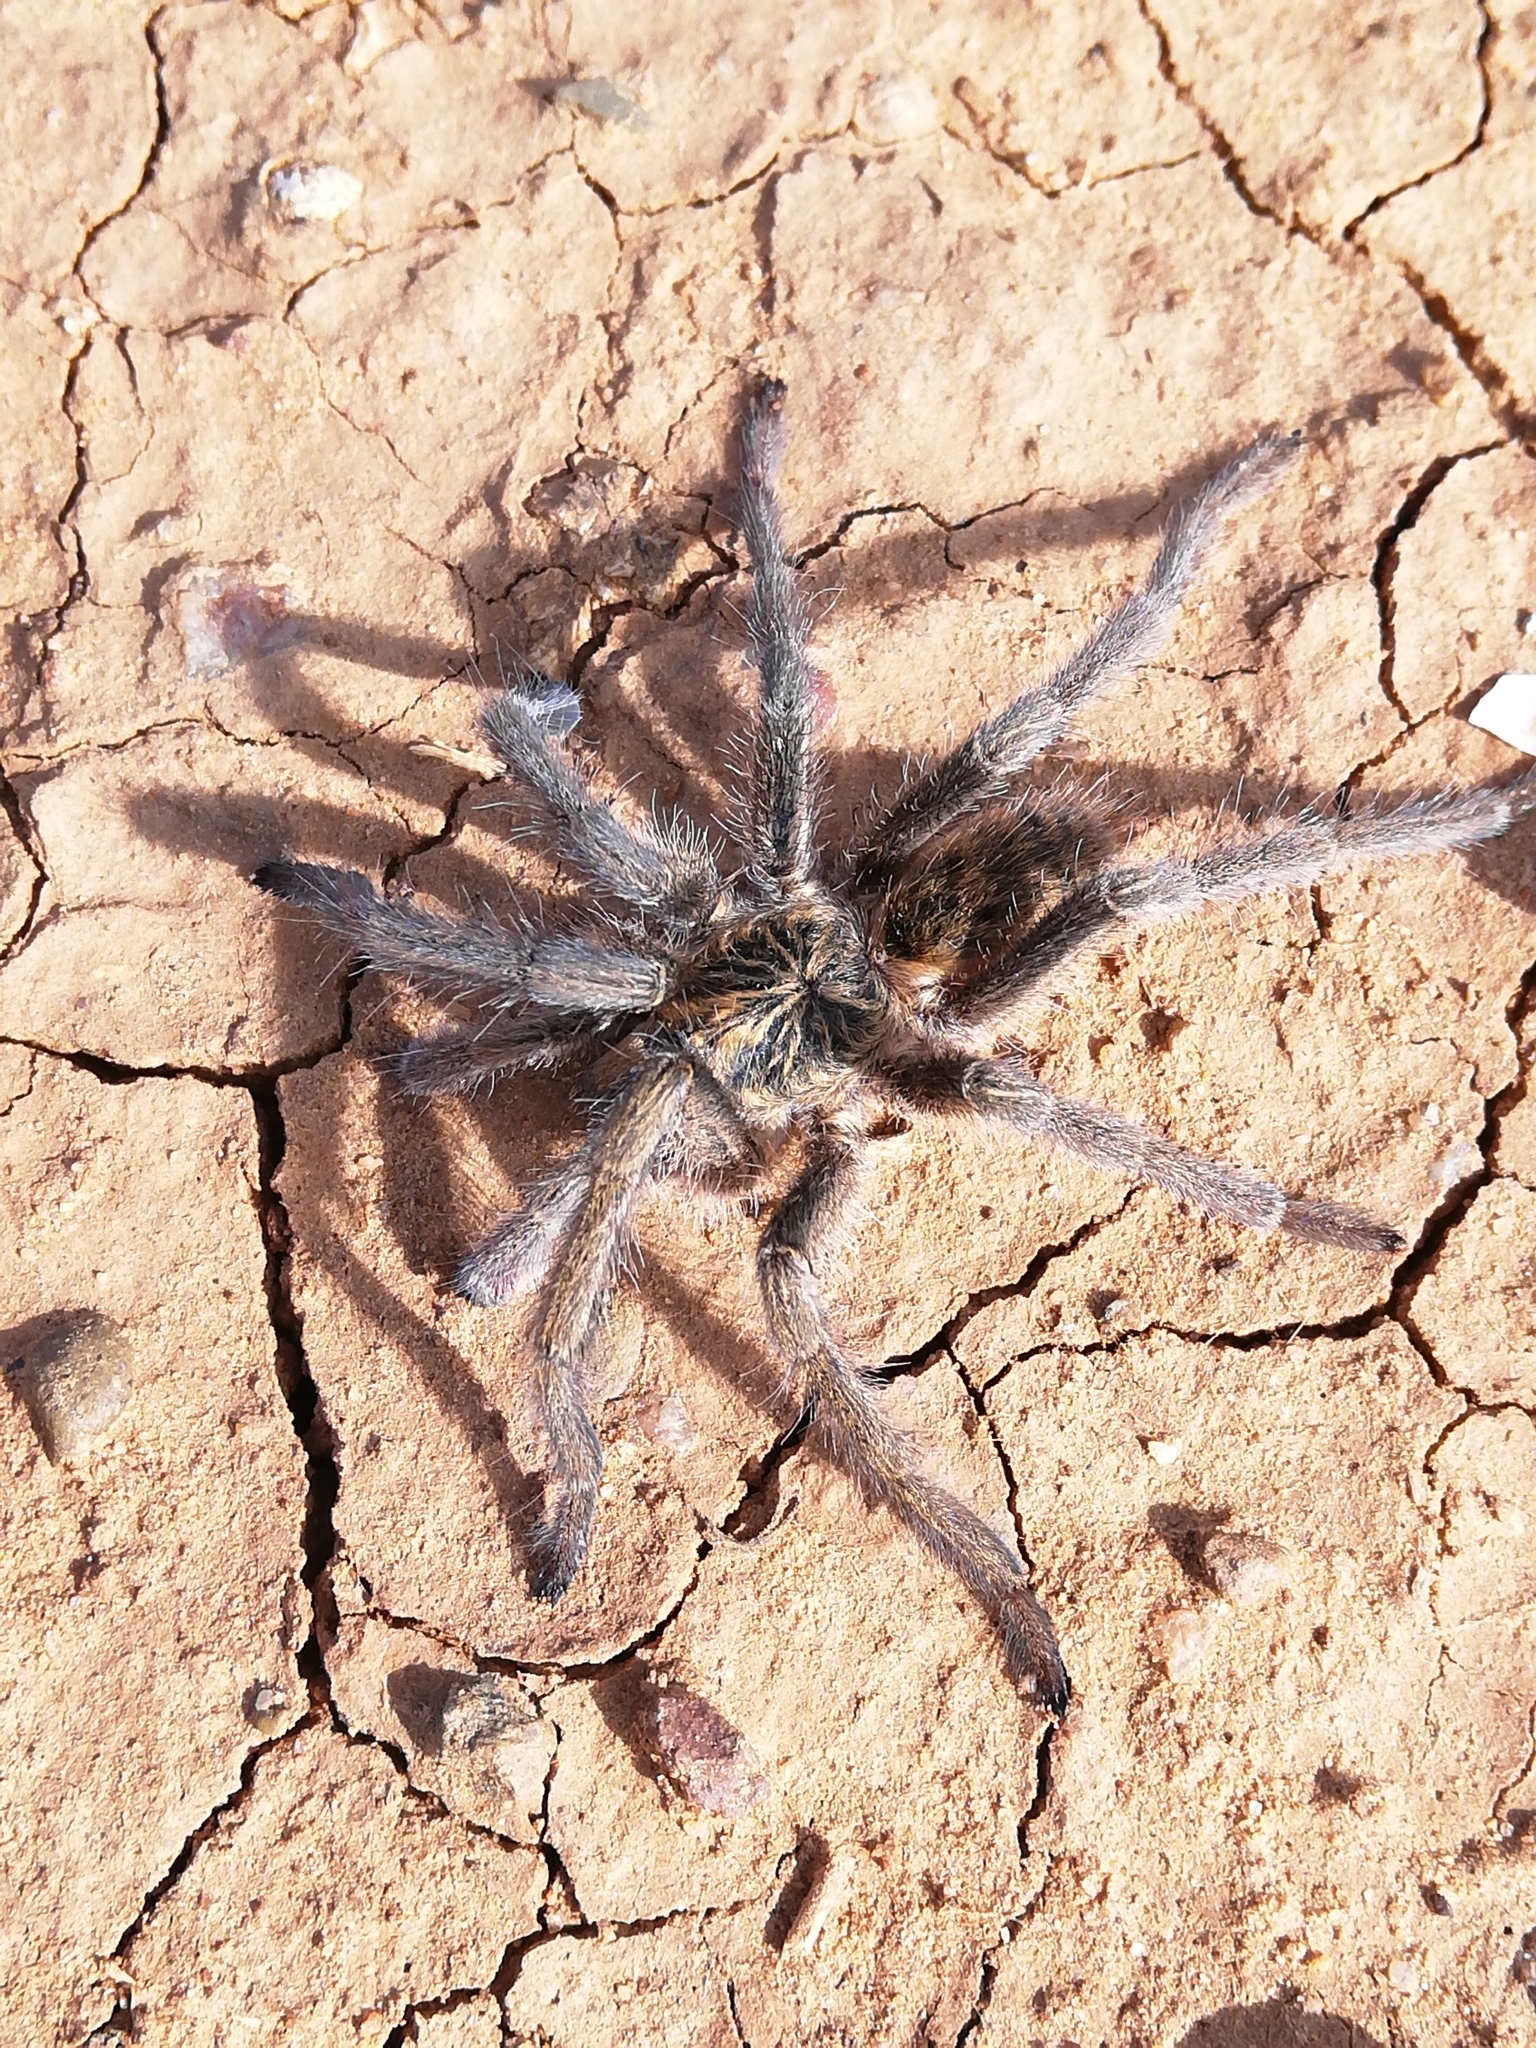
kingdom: Animalia
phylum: Arthropoda
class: Arachnida
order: Araneae
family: Theraphosidae
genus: Harpactirella
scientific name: Harpactirella magna
